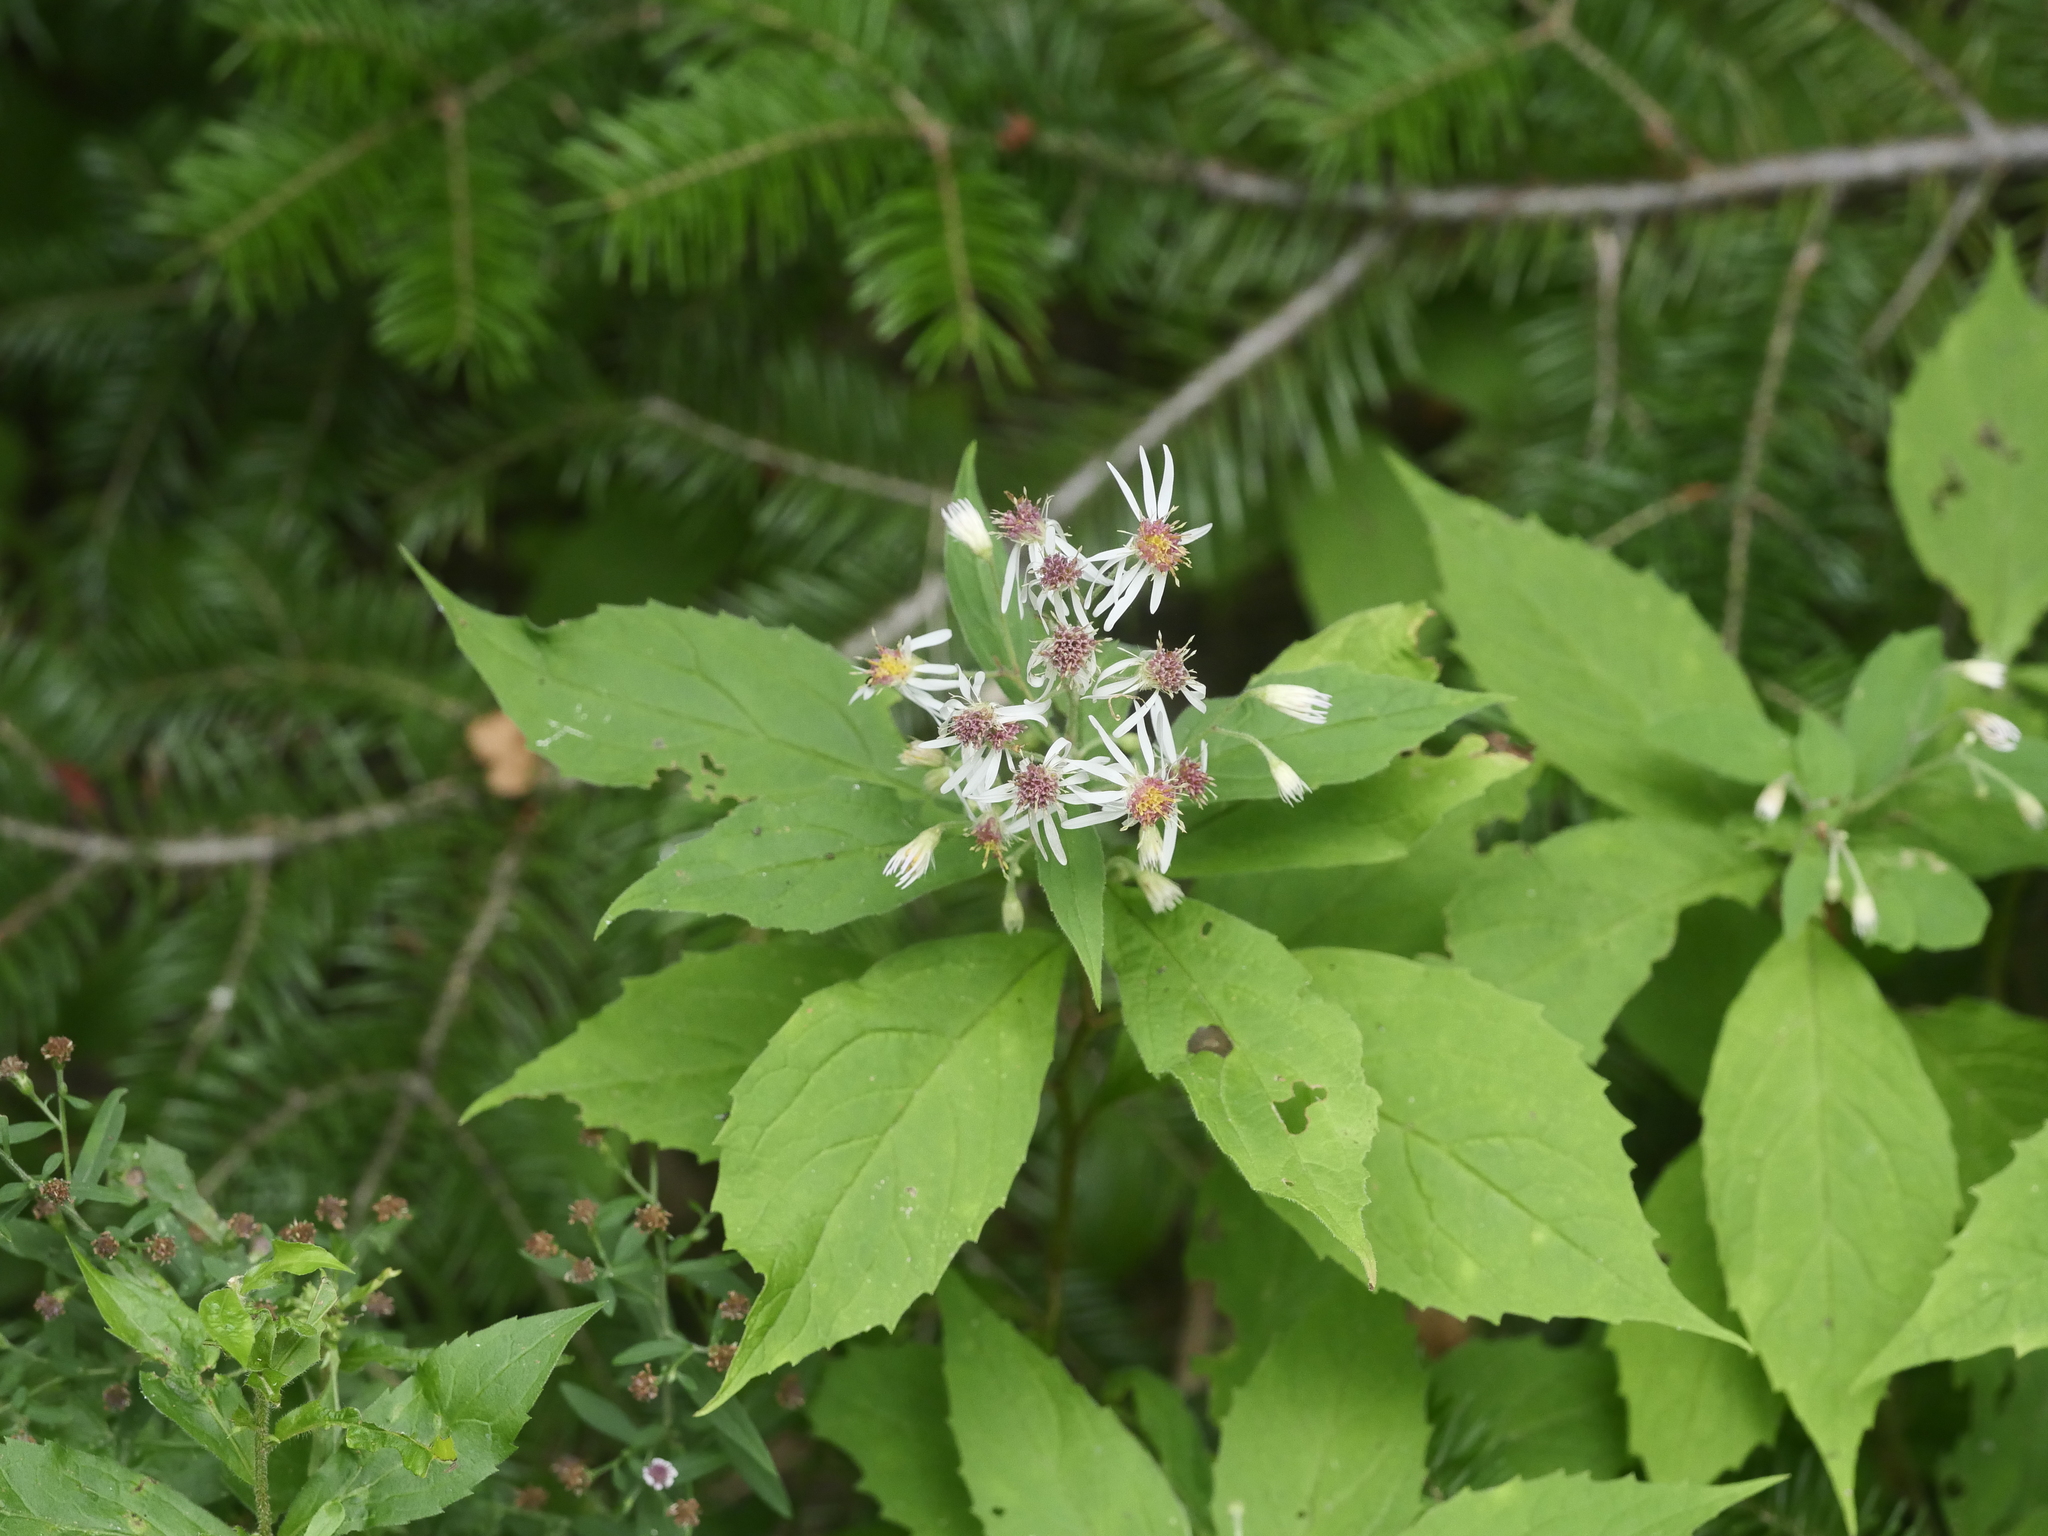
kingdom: Plantae
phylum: Tracheophyta
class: Magnoliopsida
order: Asterales
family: Asteraceae
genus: Oclemena
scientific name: Oclemena acuminata
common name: Mountain aster
